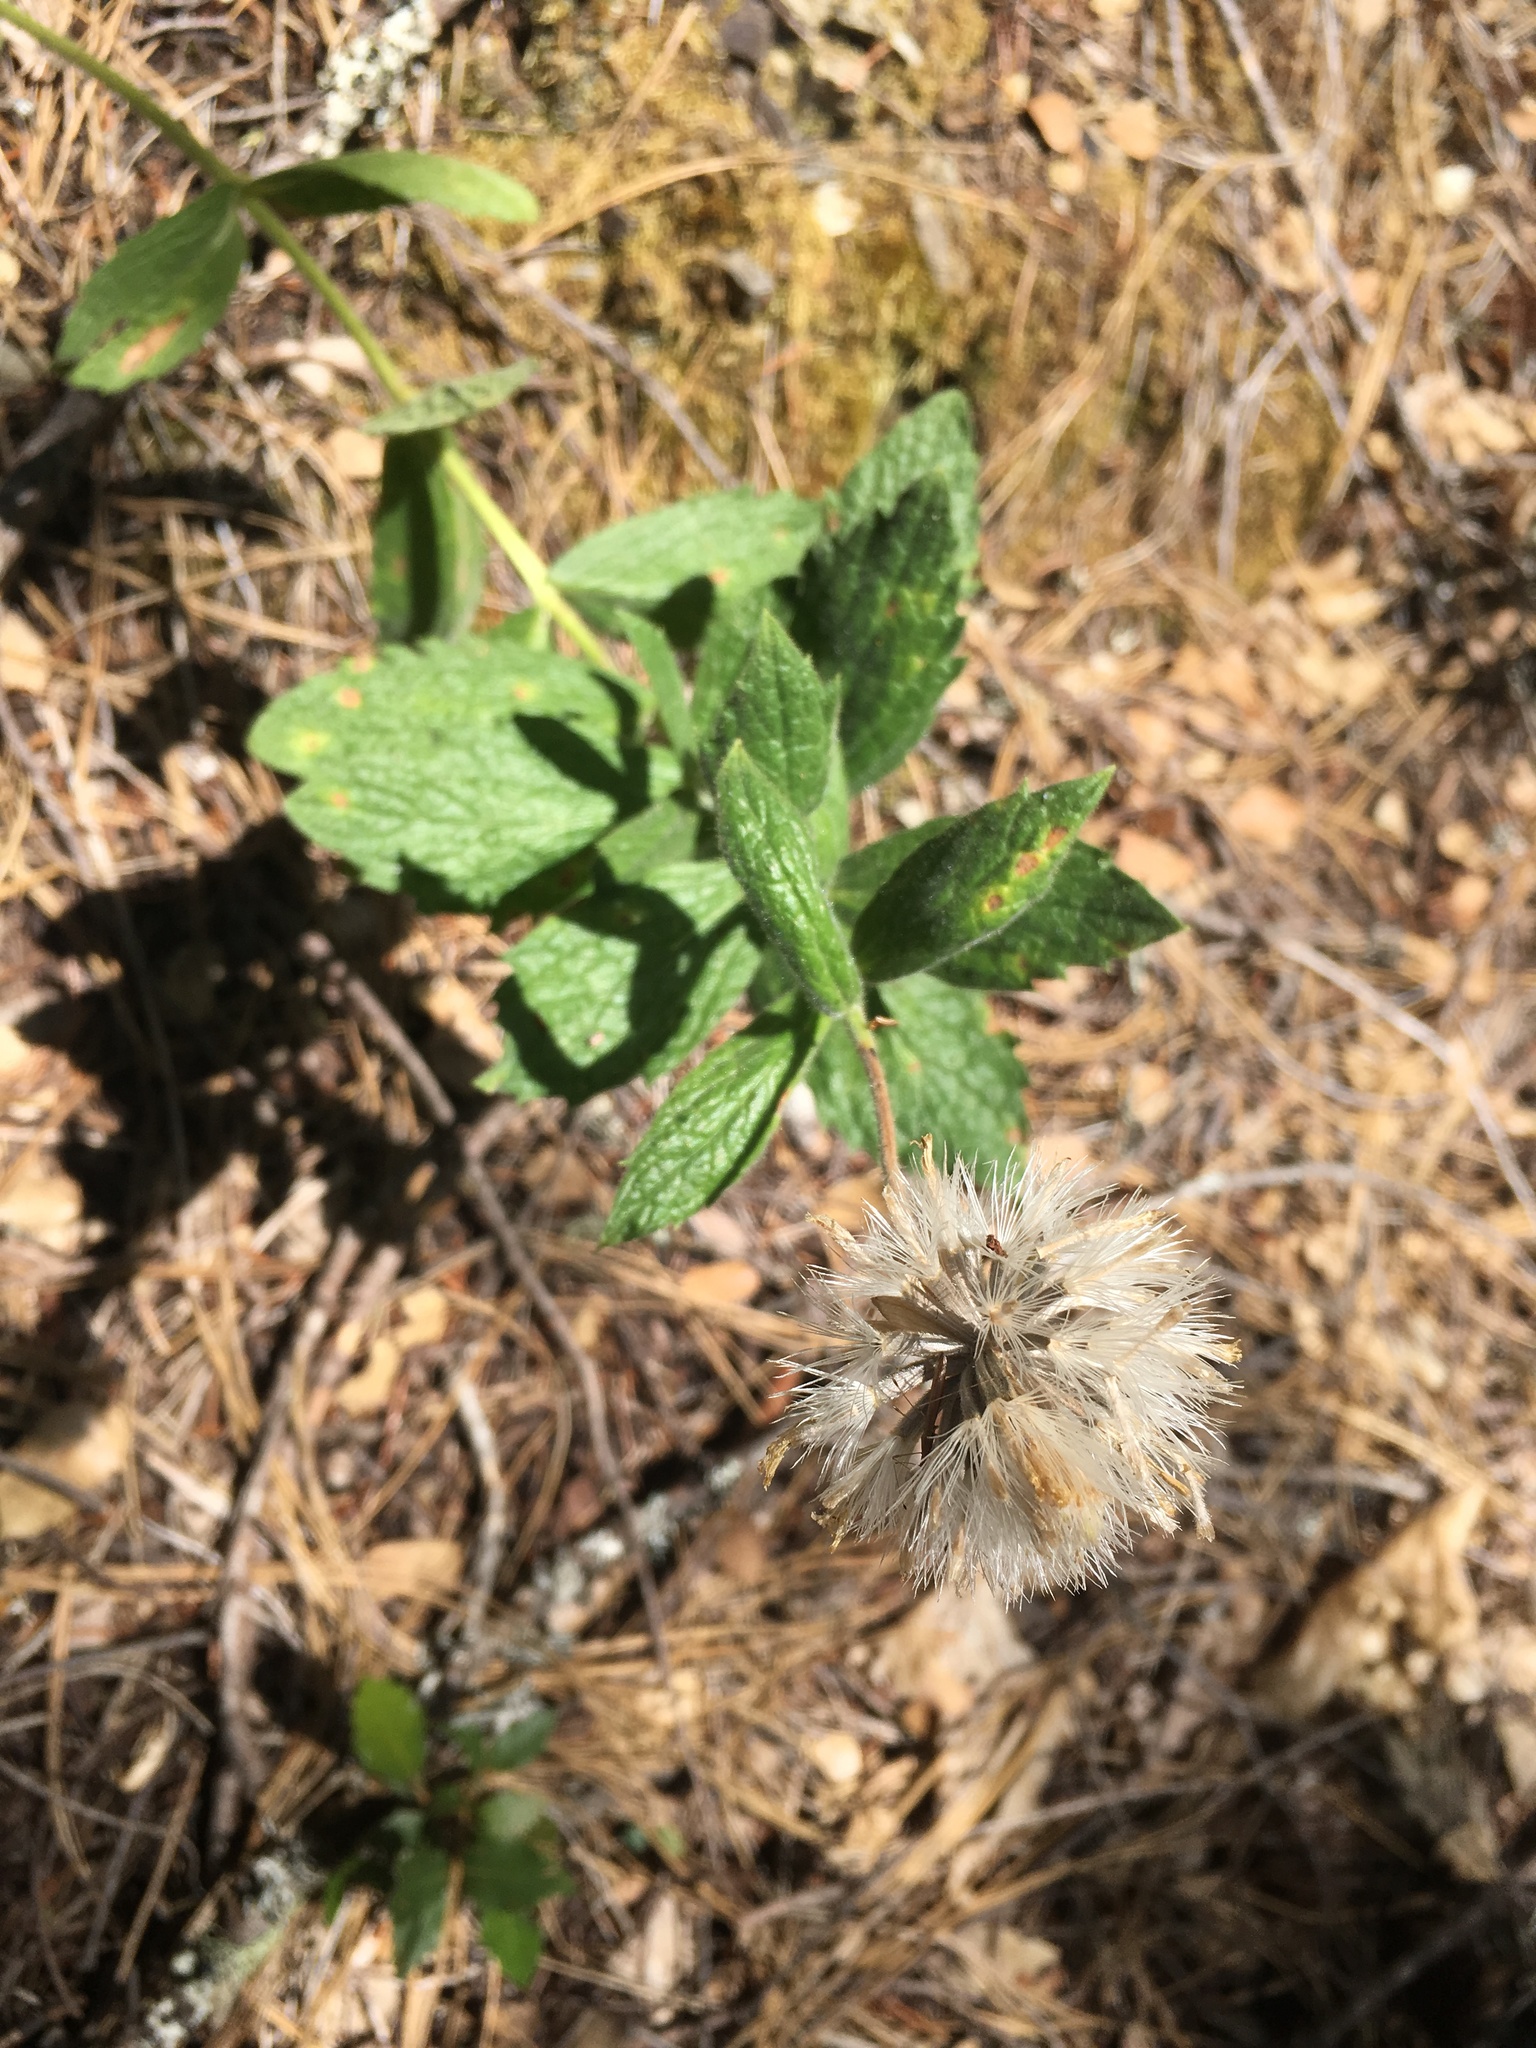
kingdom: Plantae
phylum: Tracheophyta
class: Magnoliopsida
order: Asterales
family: Asteraceae
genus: Arnica
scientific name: Arnica venosa
